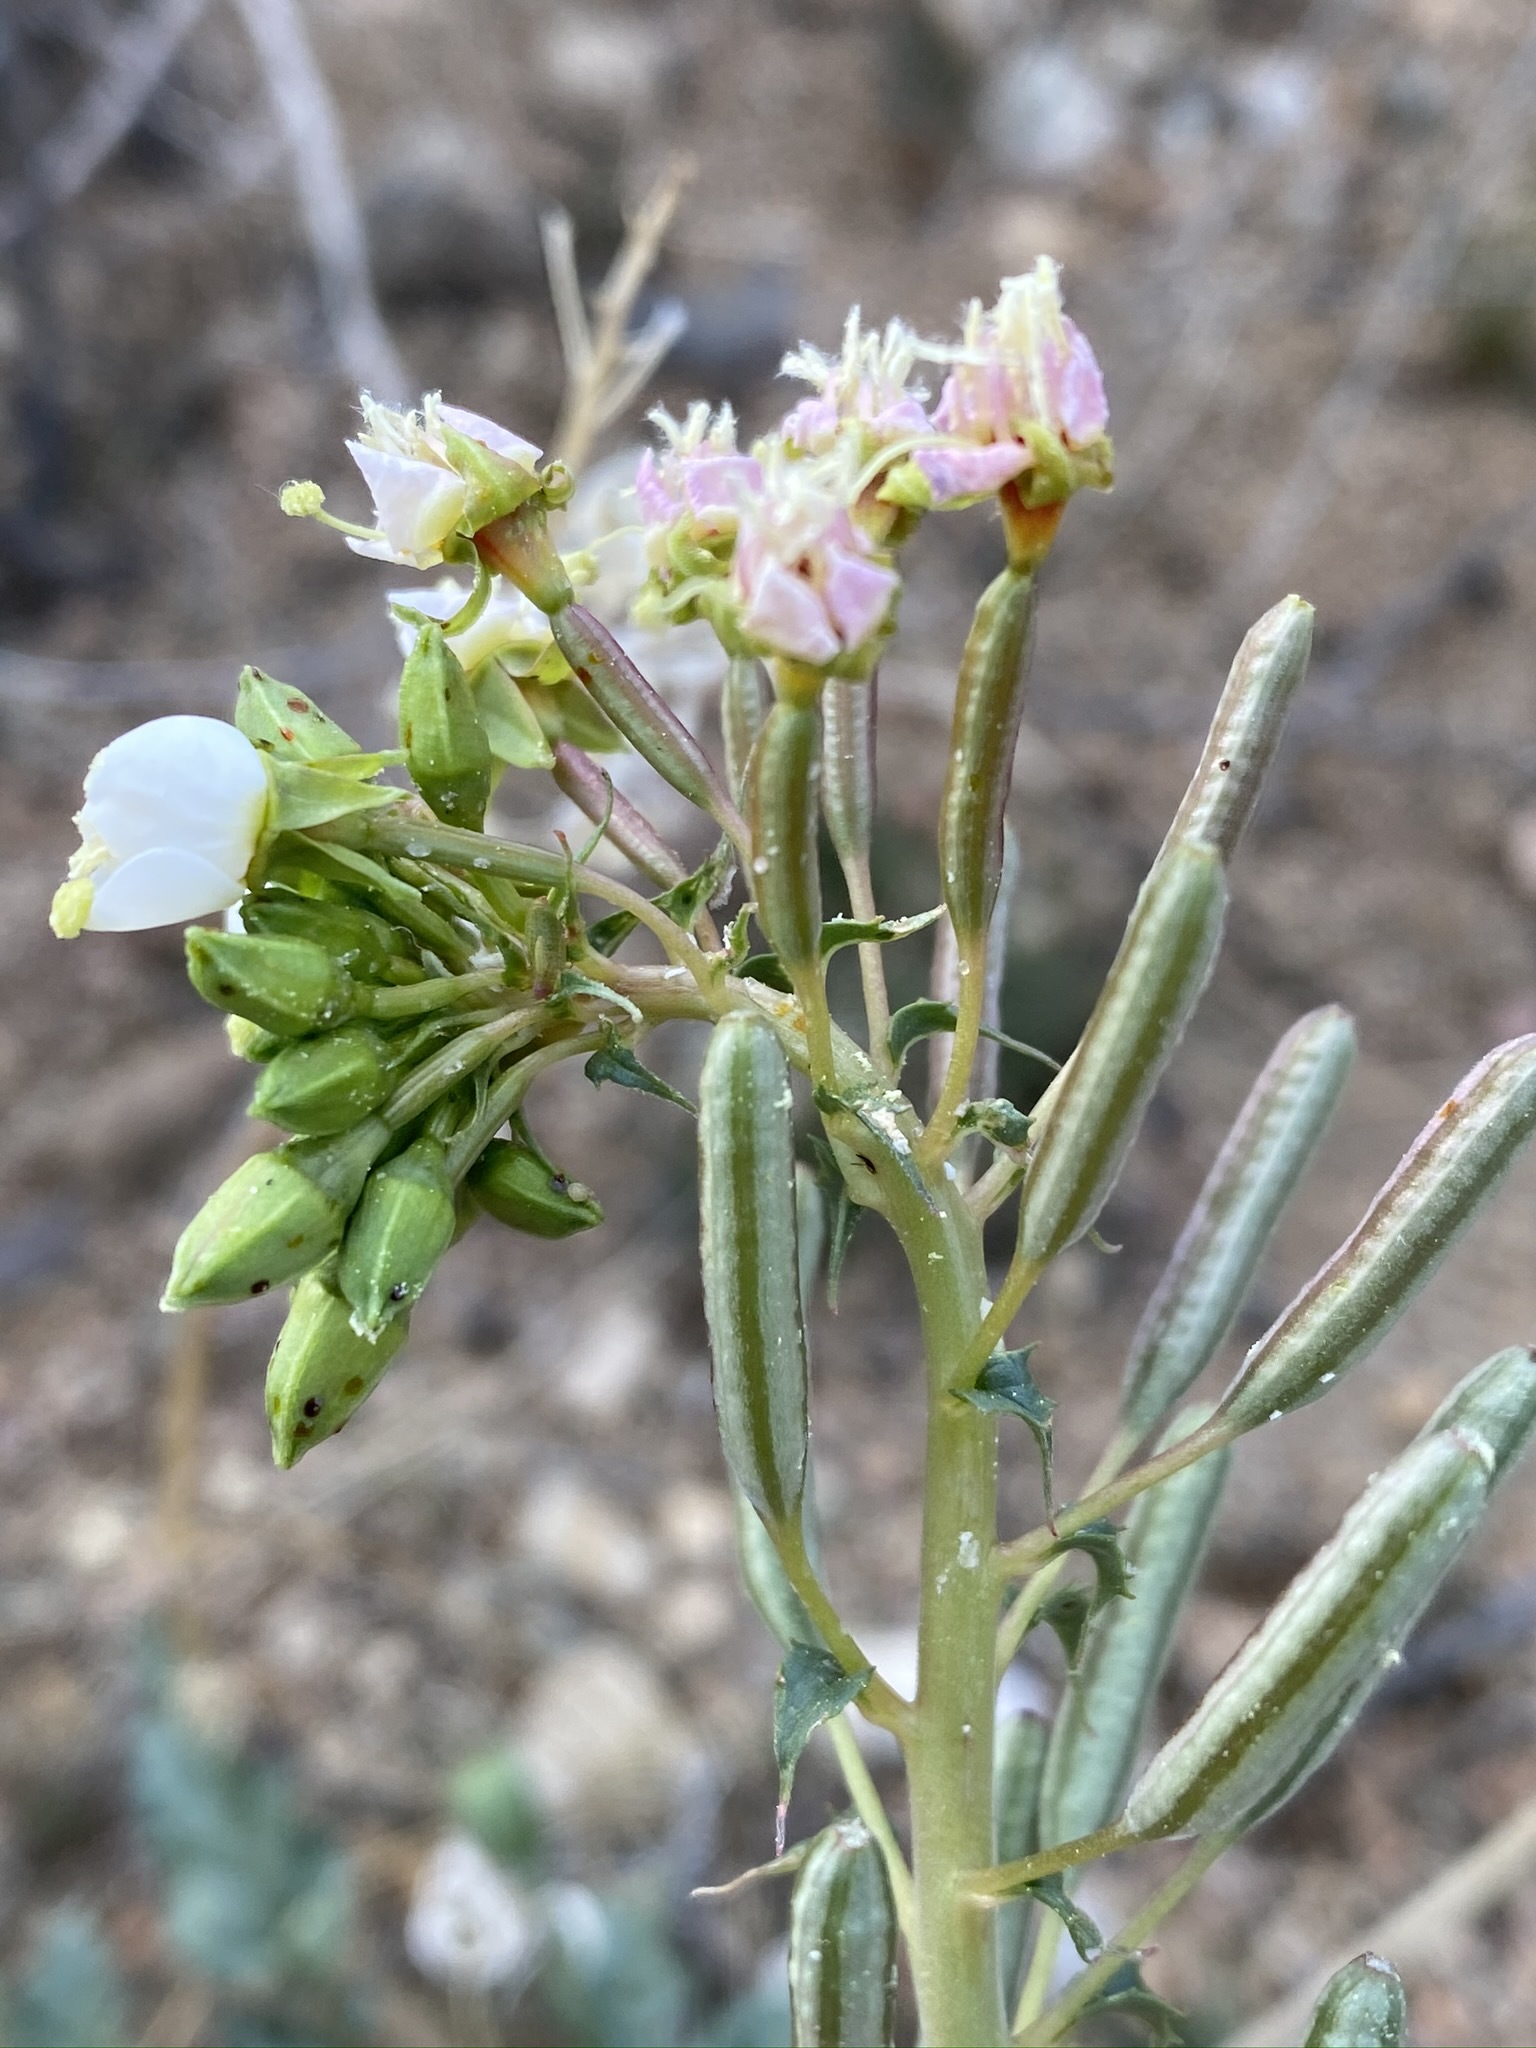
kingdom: Plantae
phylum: Tracheophyta
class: Magnoliopsida
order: Myrtales
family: Onagraceae
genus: Chylismia
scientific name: Chylismia claviformis
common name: Browneyes
